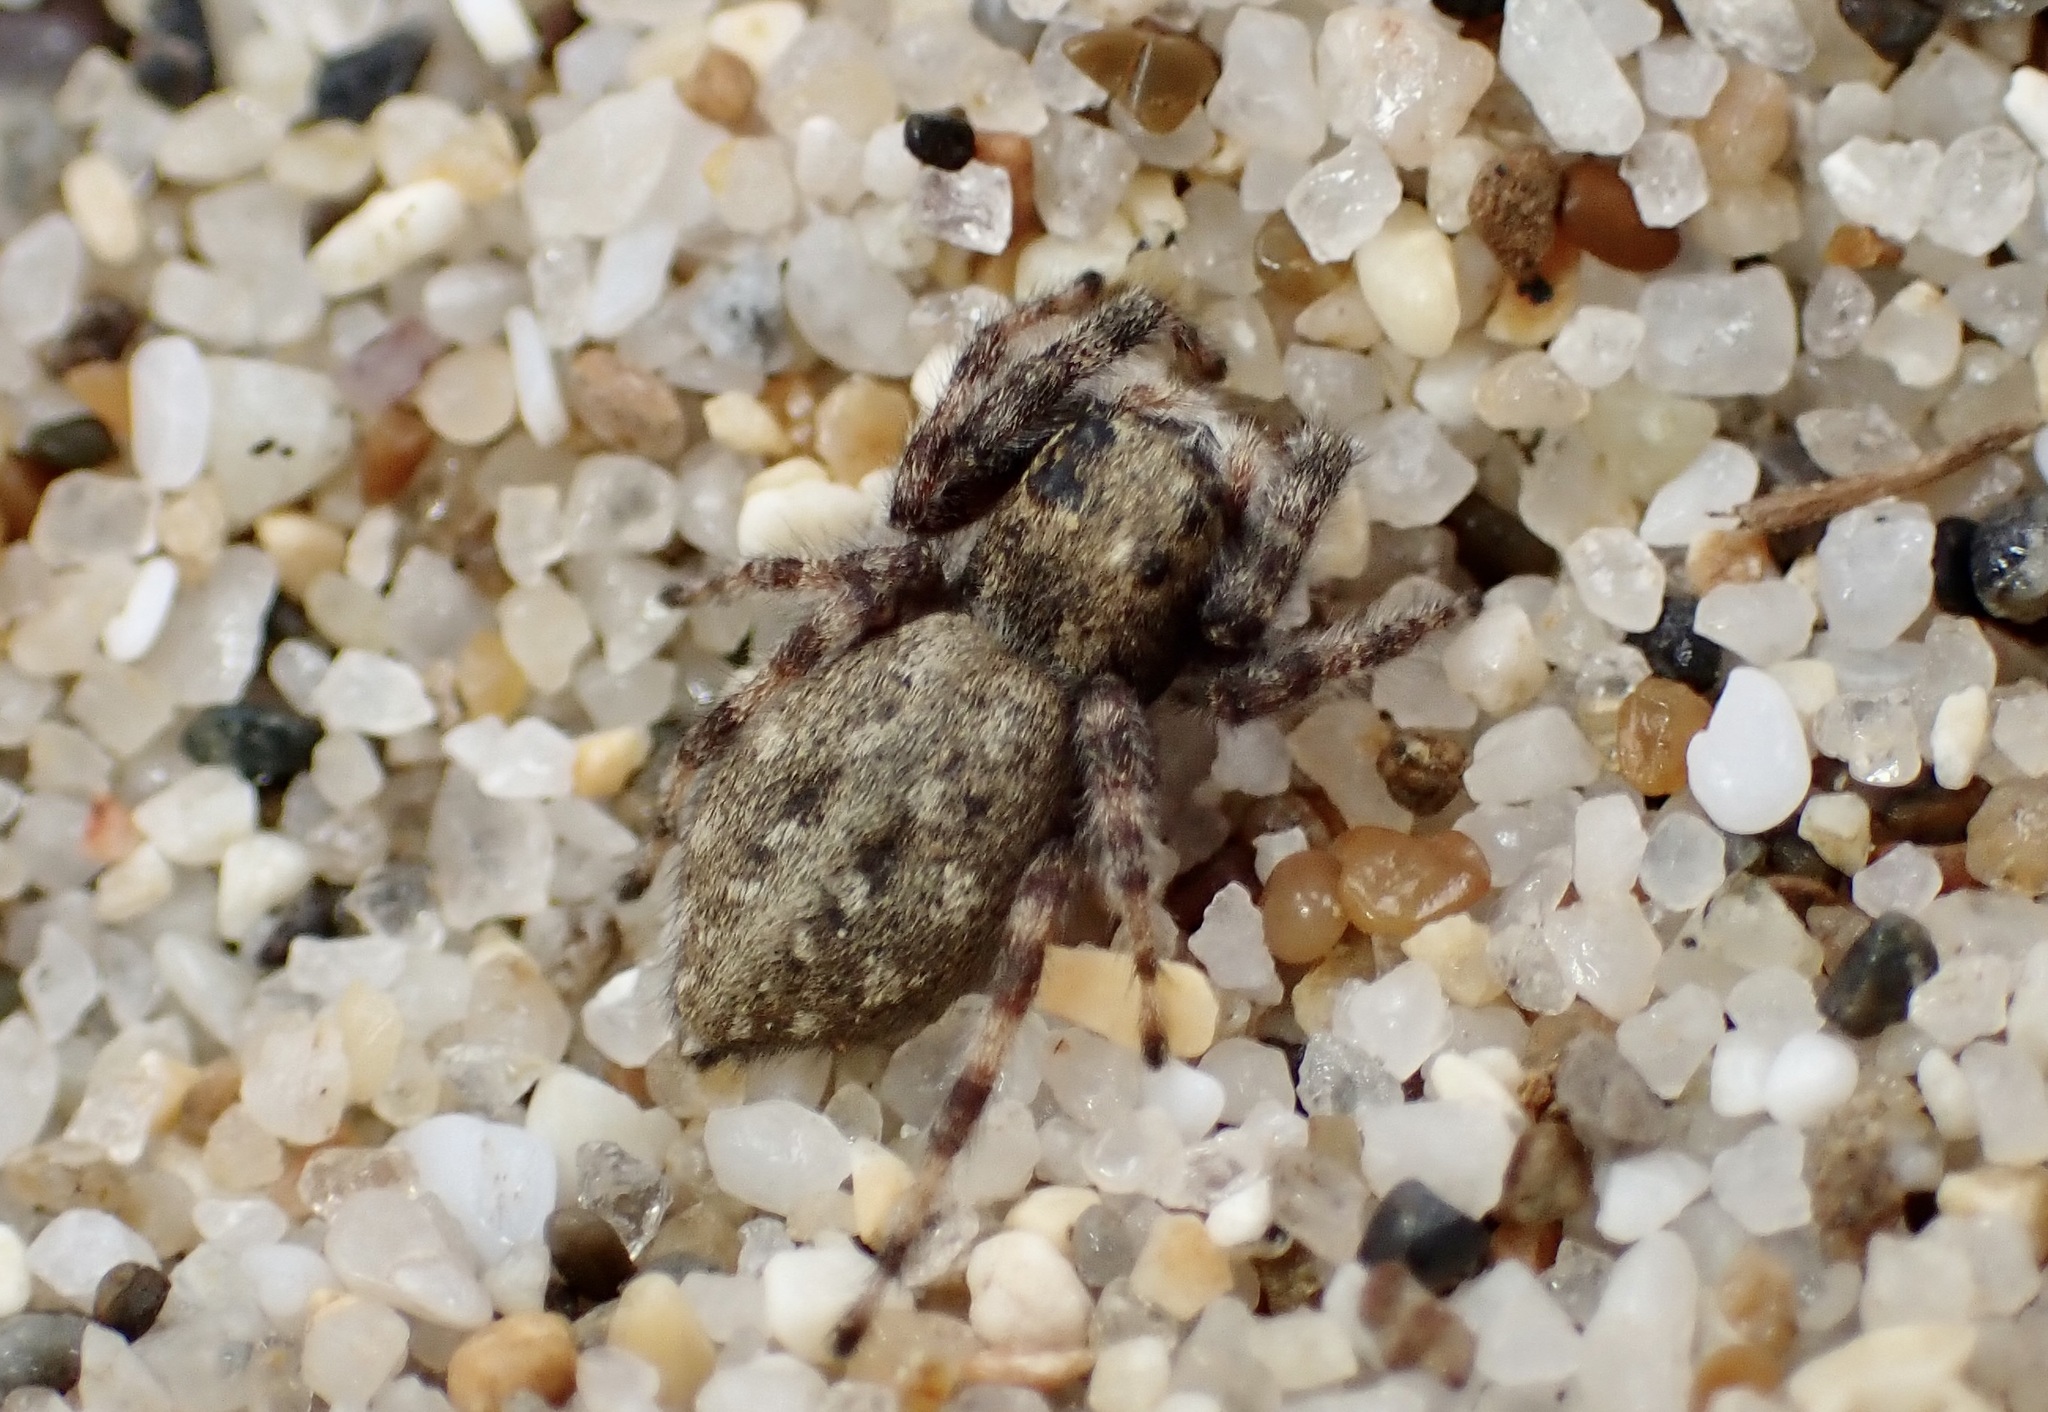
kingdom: Animalia
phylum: Arthropoda
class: Arachnida
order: Araneae
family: Salticidae
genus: Terralonus
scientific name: Terralonus californicus
